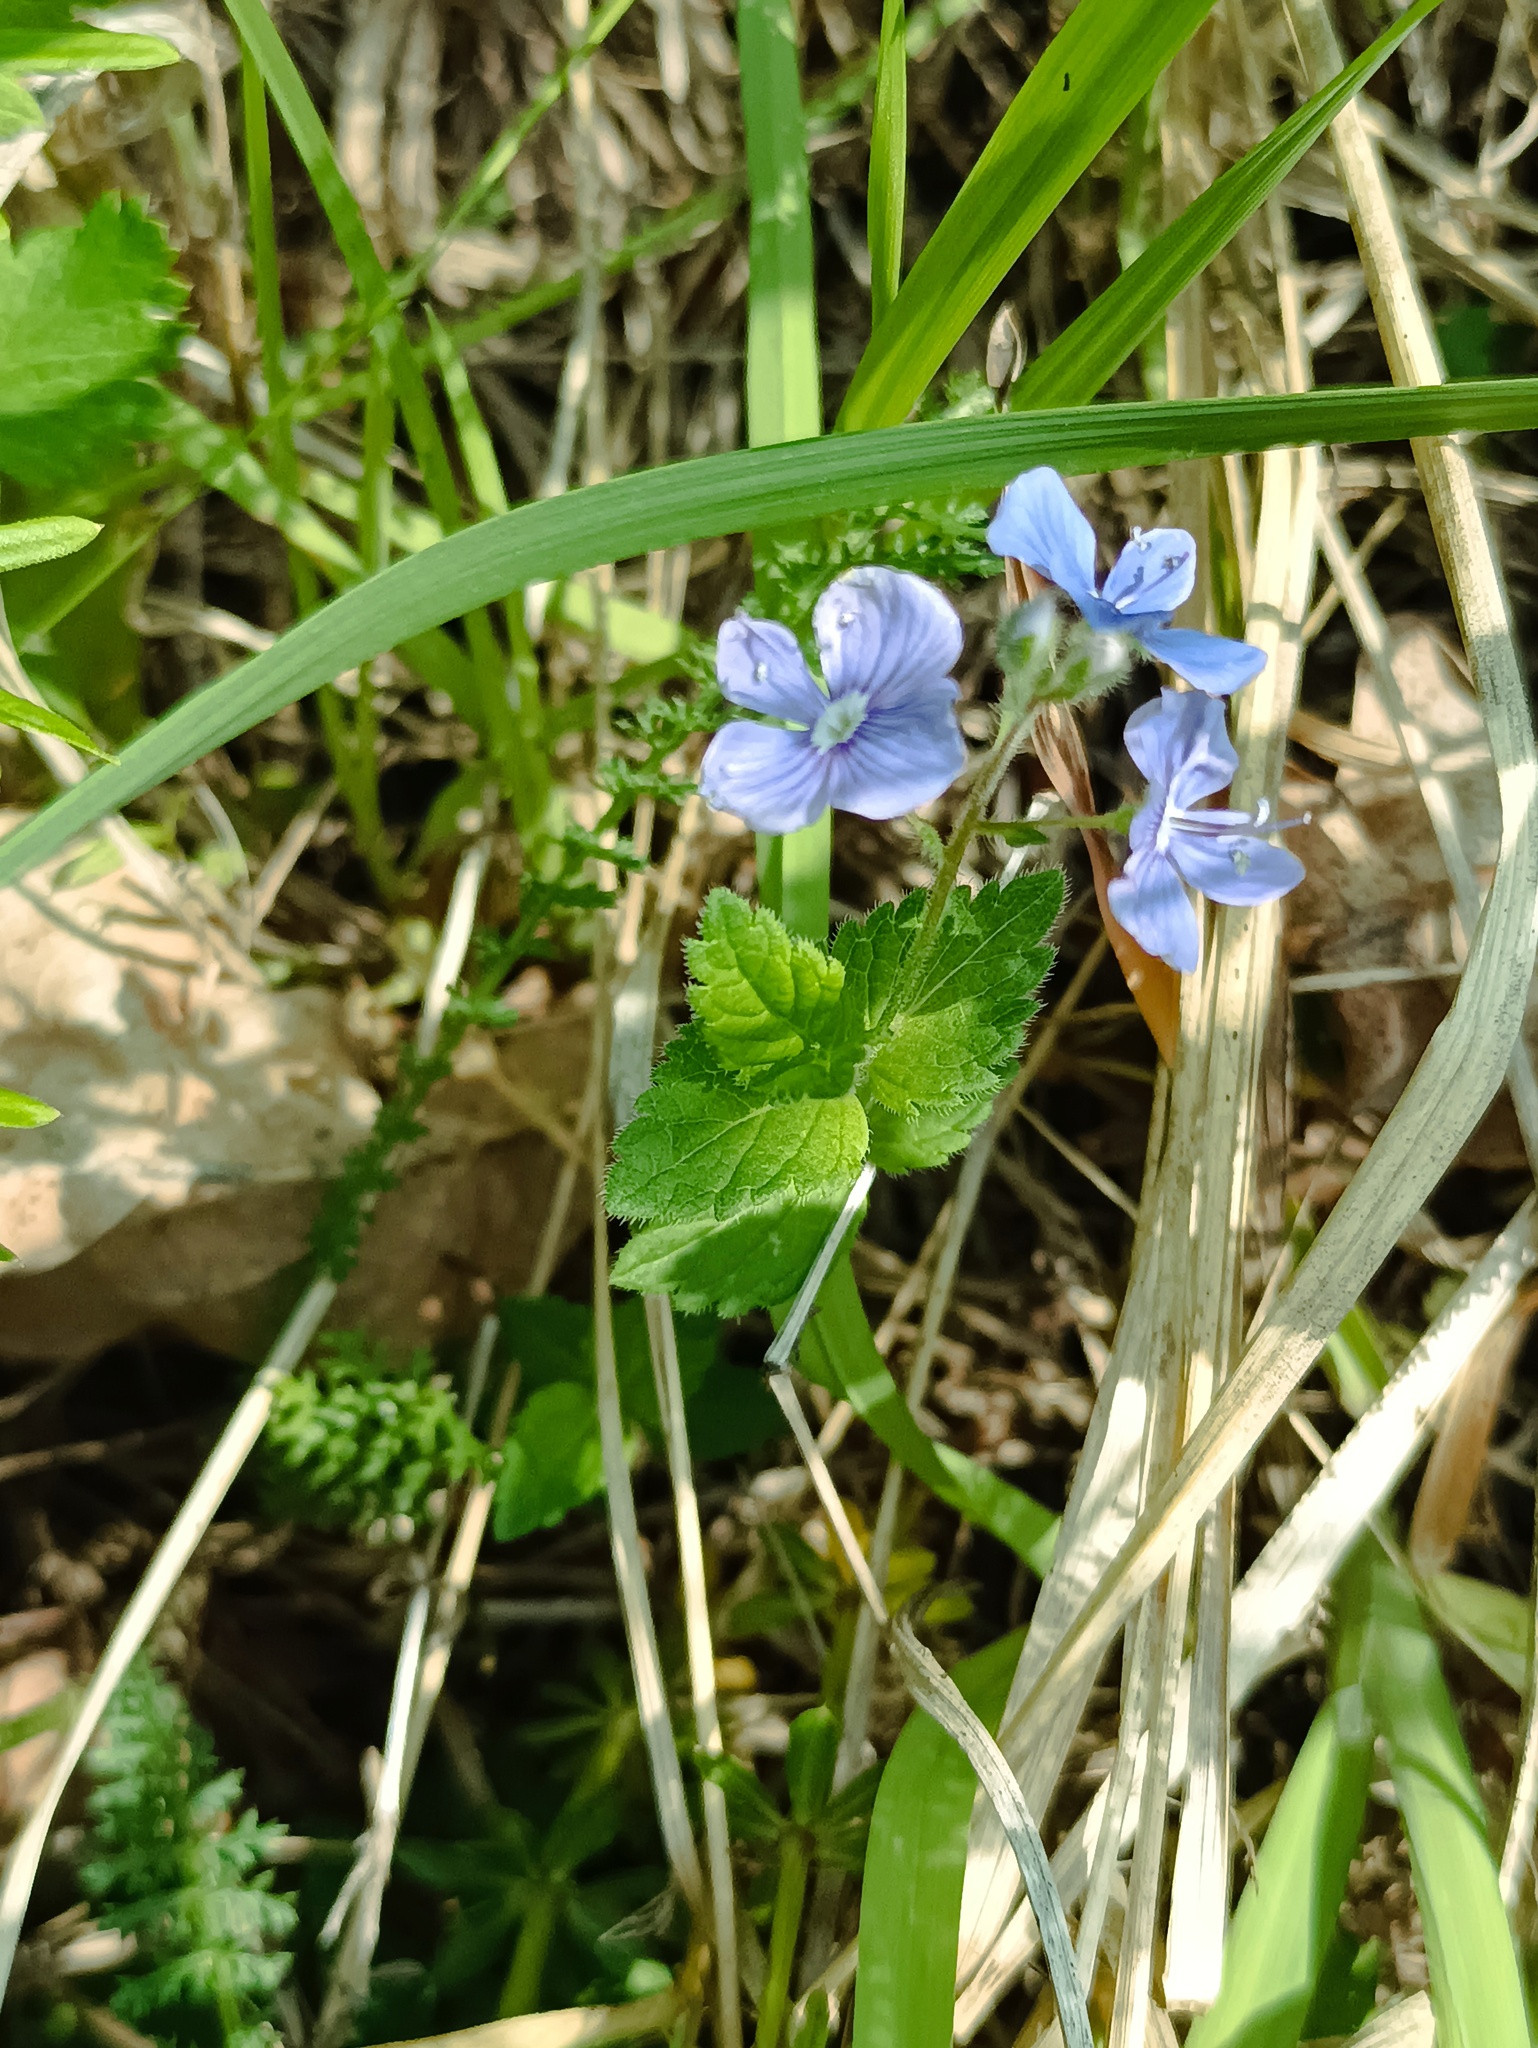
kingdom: Plantae
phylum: Tracheophyta
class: Magnoliopsida
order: Lamiales
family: Plantaginaceae
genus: Veronica
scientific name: Veronica chamaedrys
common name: Germander speedwell
